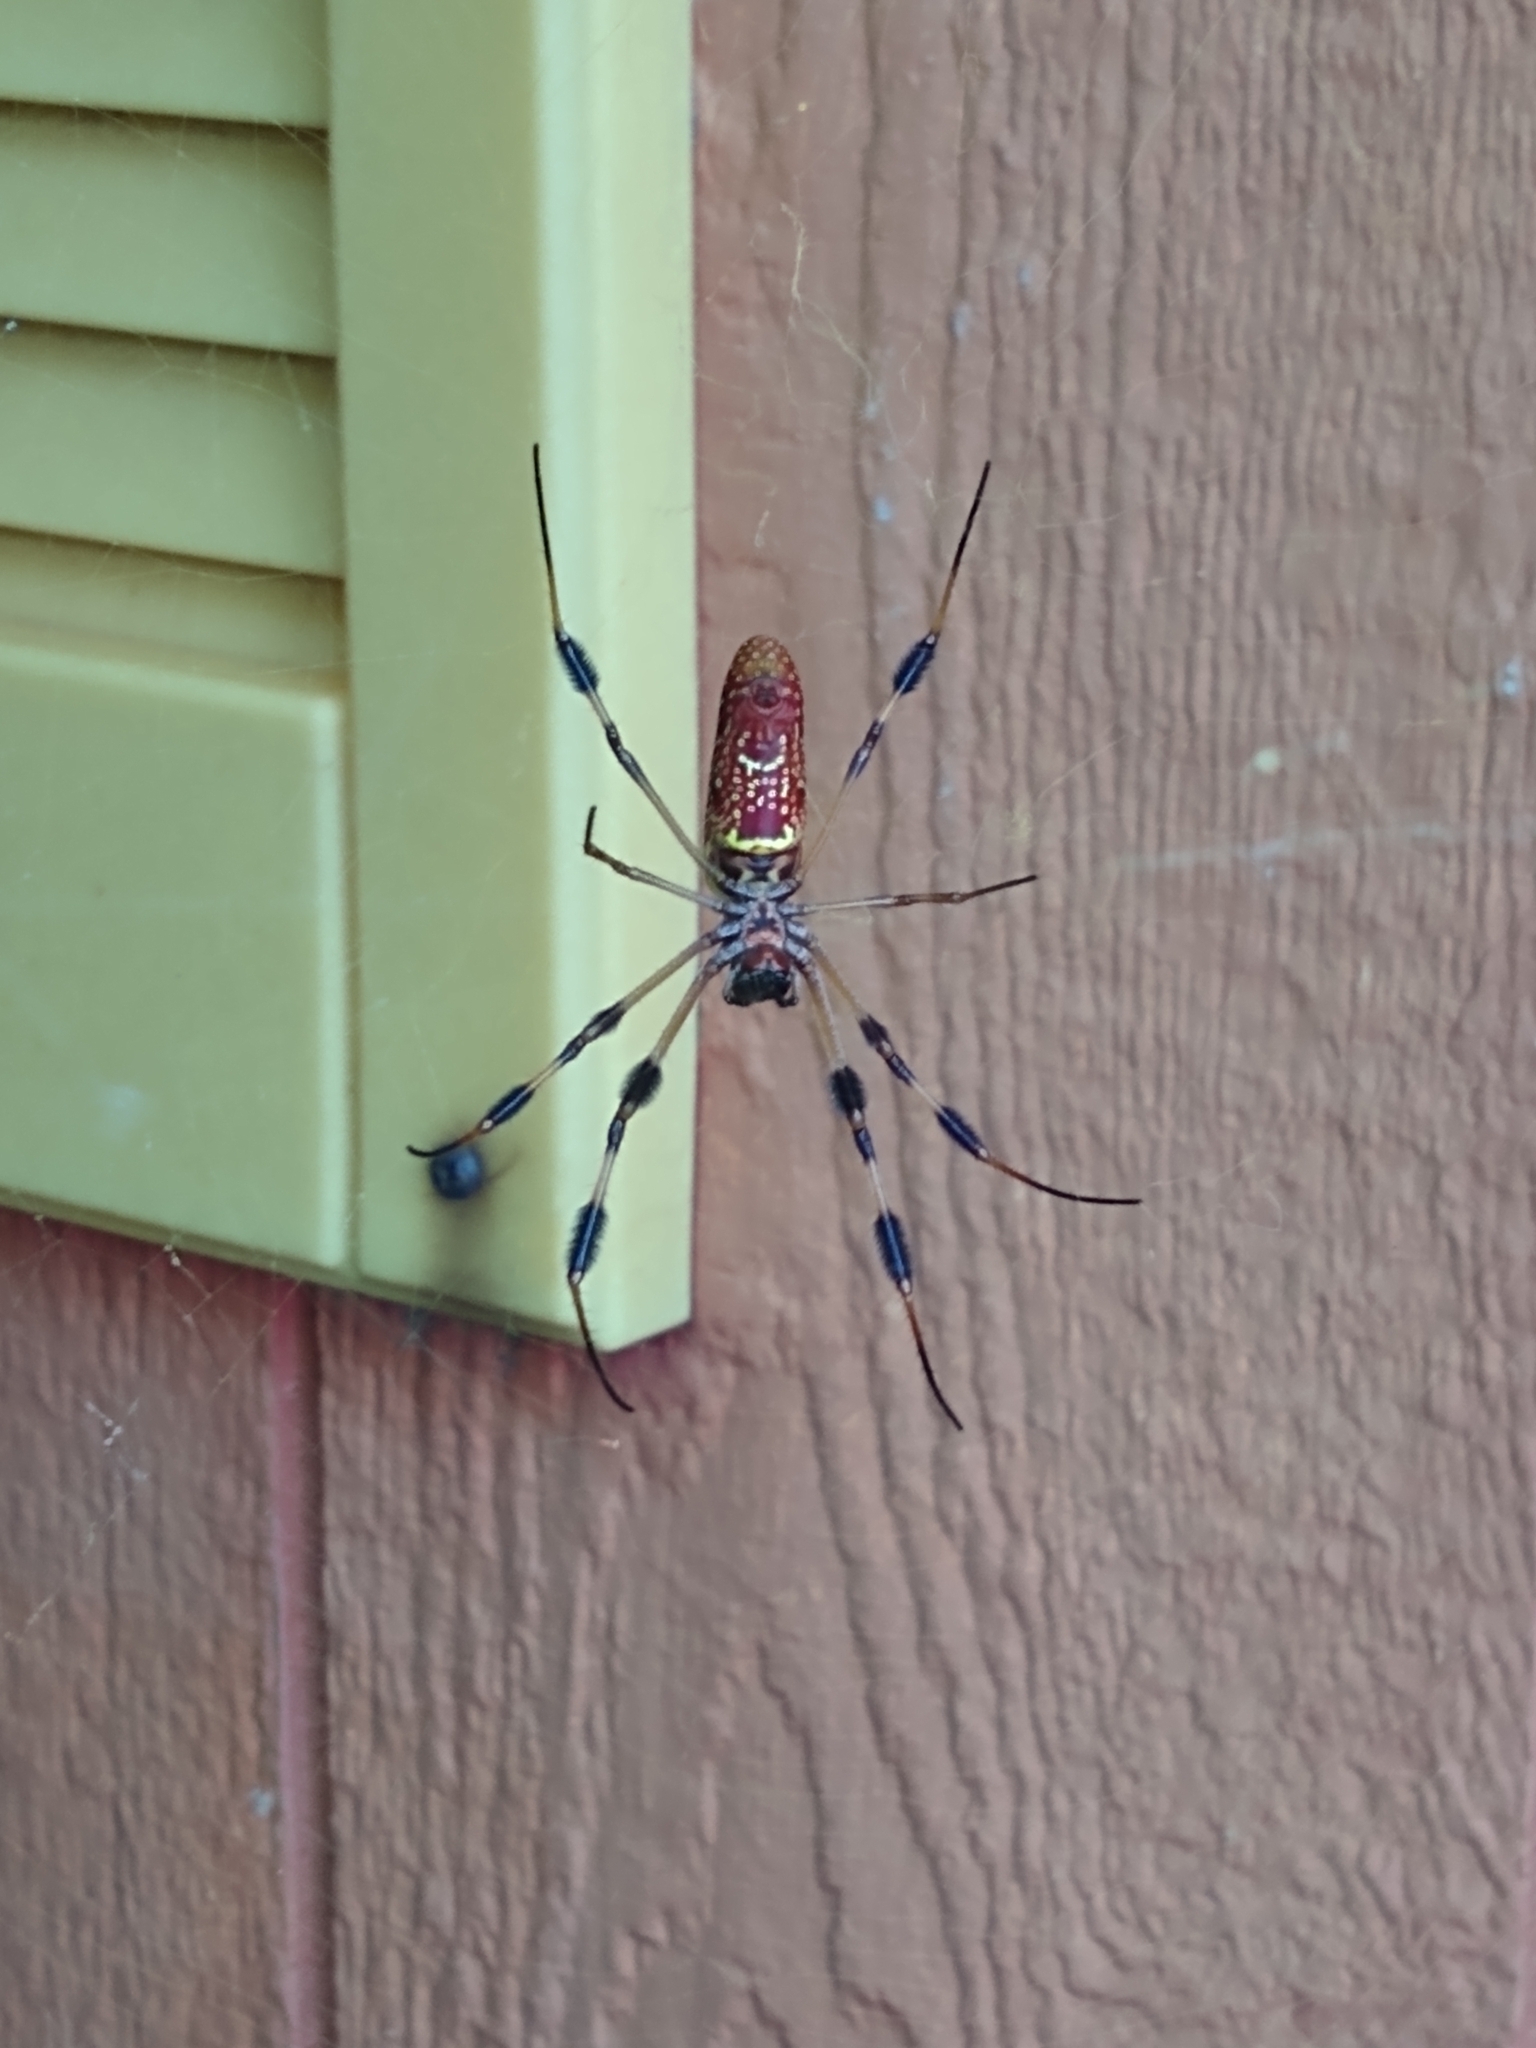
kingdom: Animalia
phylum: Arthropoda
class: Arachnida
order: Araneae
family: Araneidae
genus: Trichonephila
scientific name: Trichonephila clavipes
